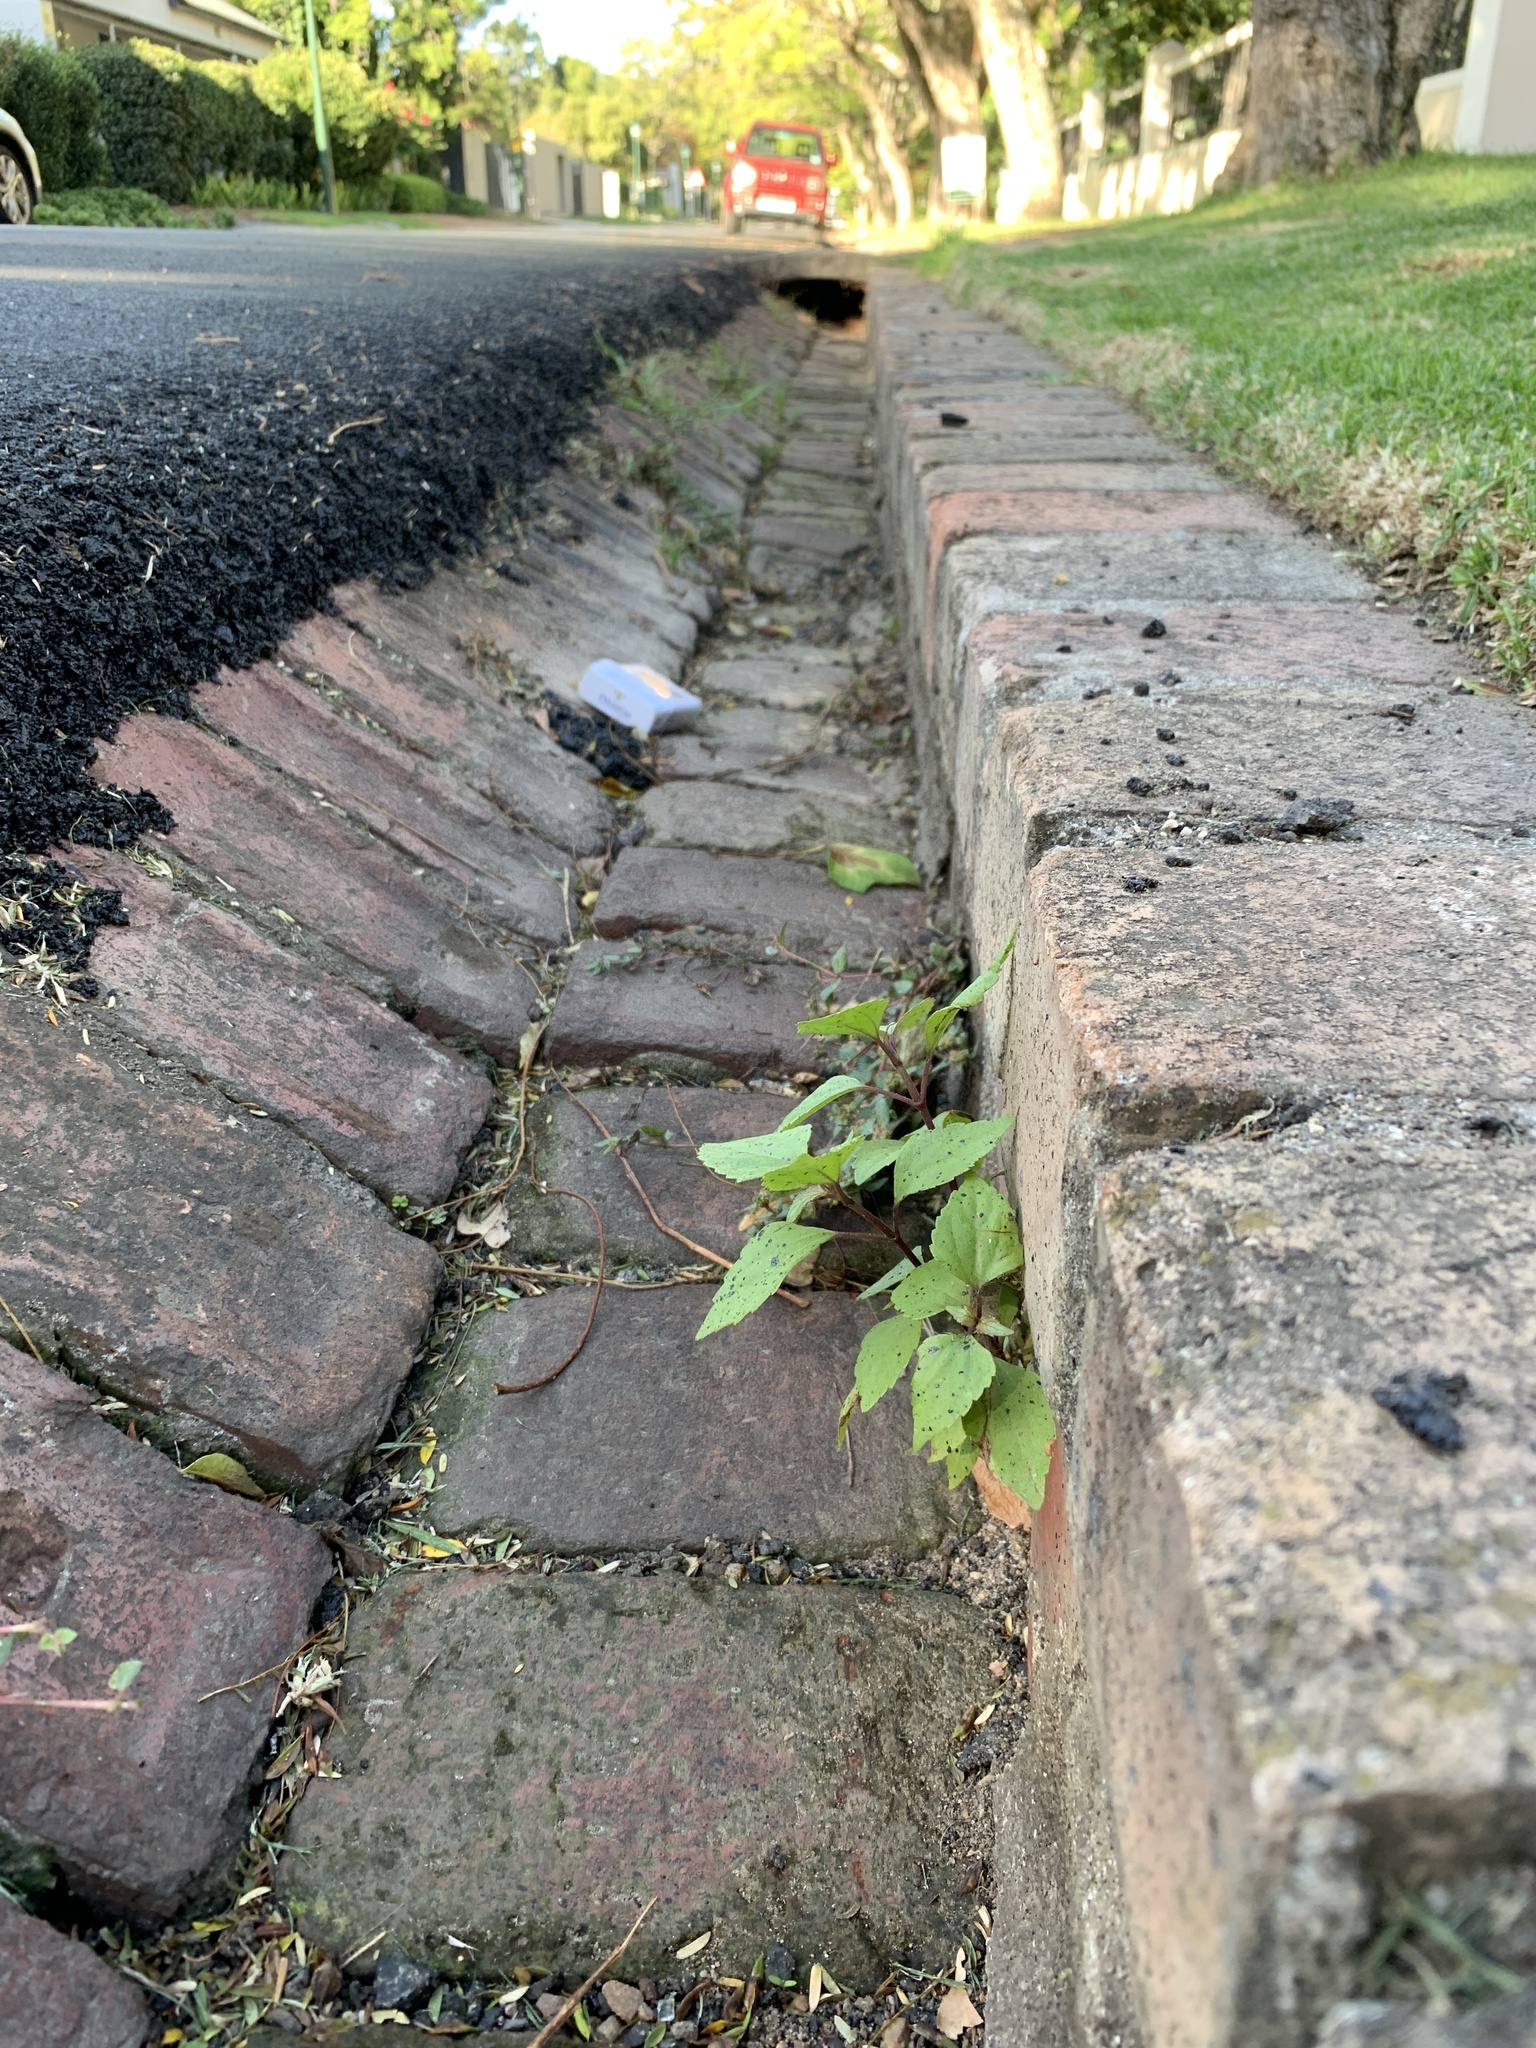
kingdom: Plantae
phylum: Tracheophyta
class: Magnoliopsida
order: Asterales
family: Asteraceae
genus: Ageratina
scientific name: Ageratina adenophora
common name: Sticky snakeroot
